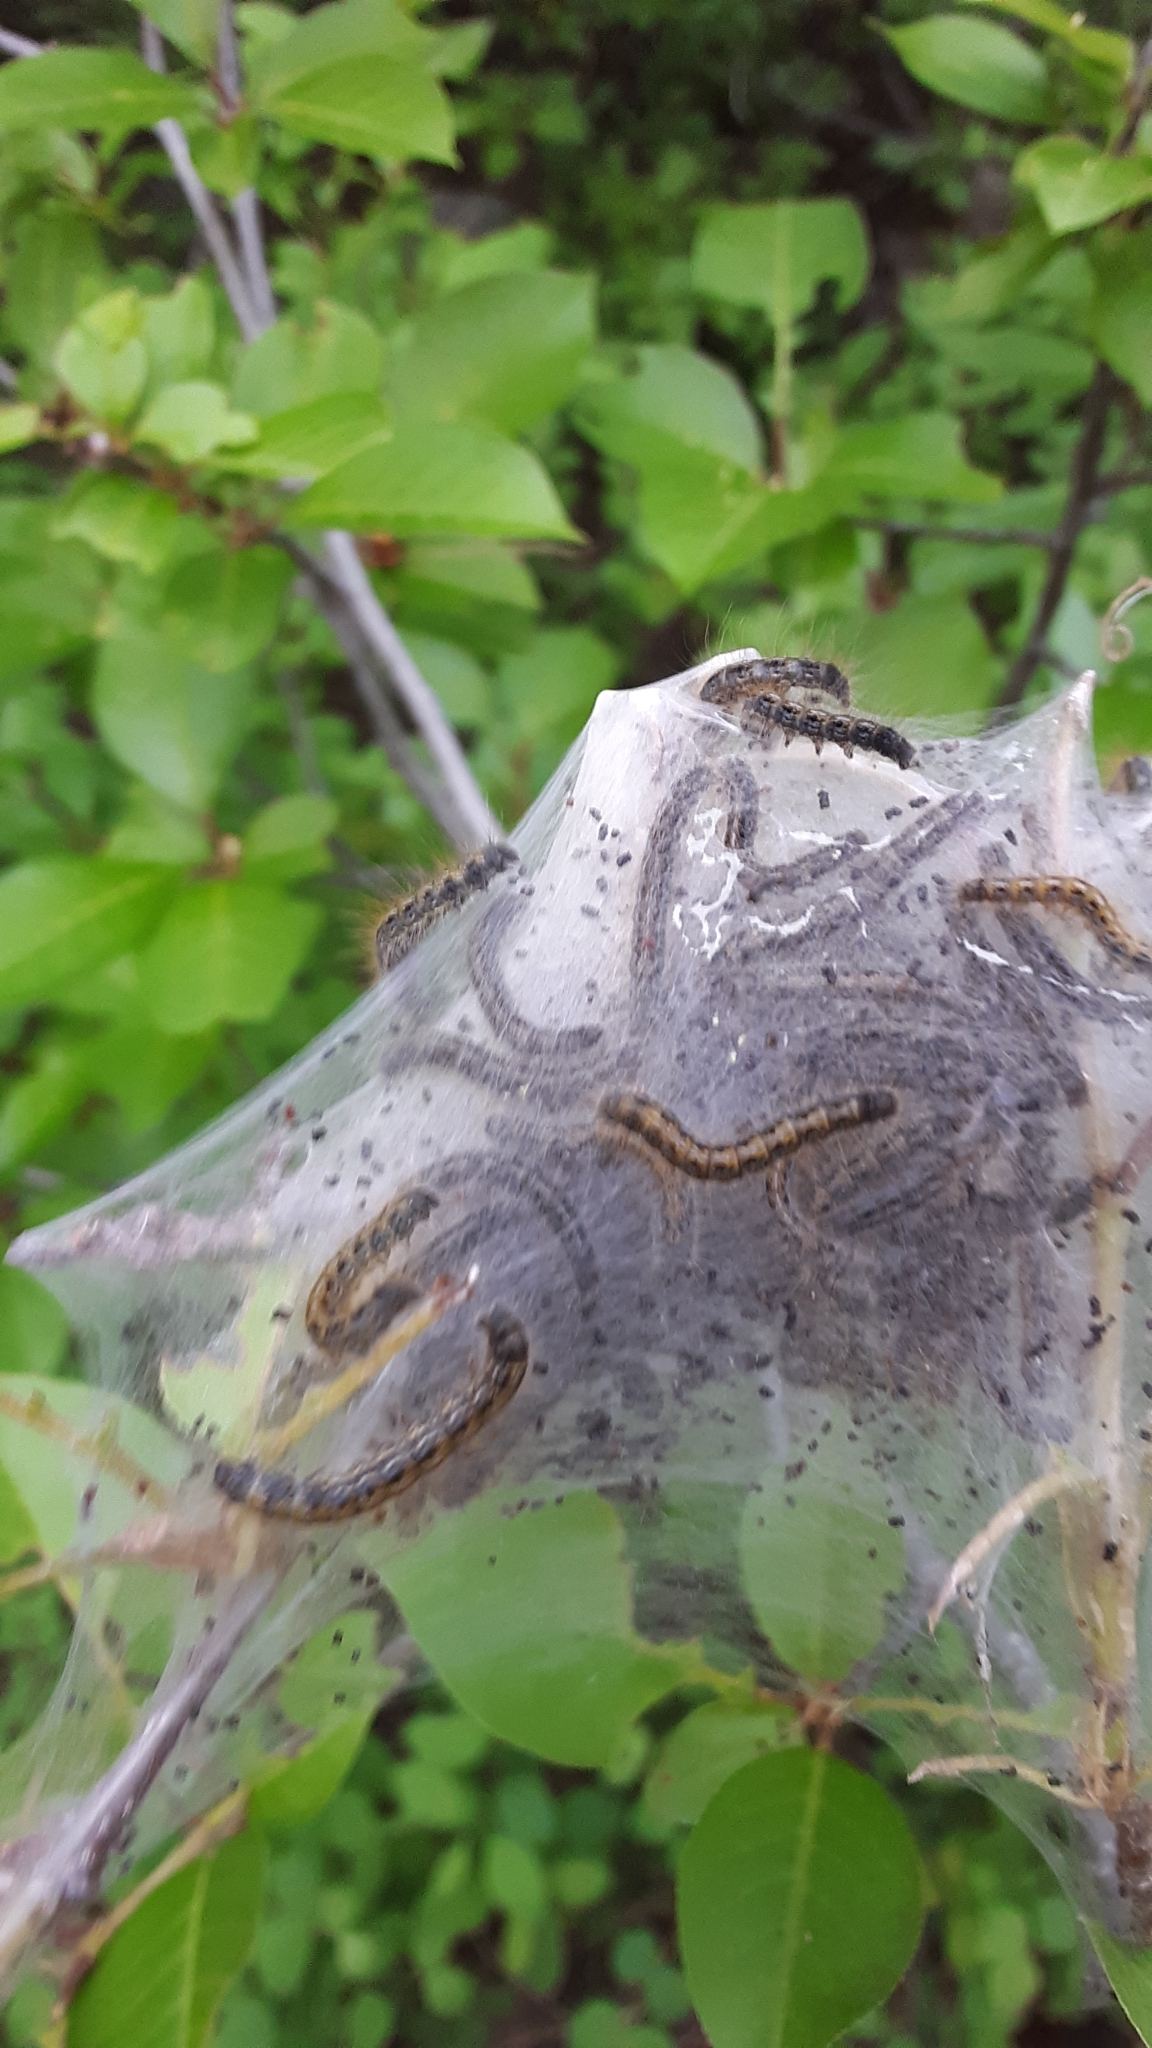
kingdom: Animalia
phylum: Arthropoda
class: Insecta
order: Lepidoptera
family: Lasiocampidae
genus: Malacosoma
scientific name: Malacosoma californica
